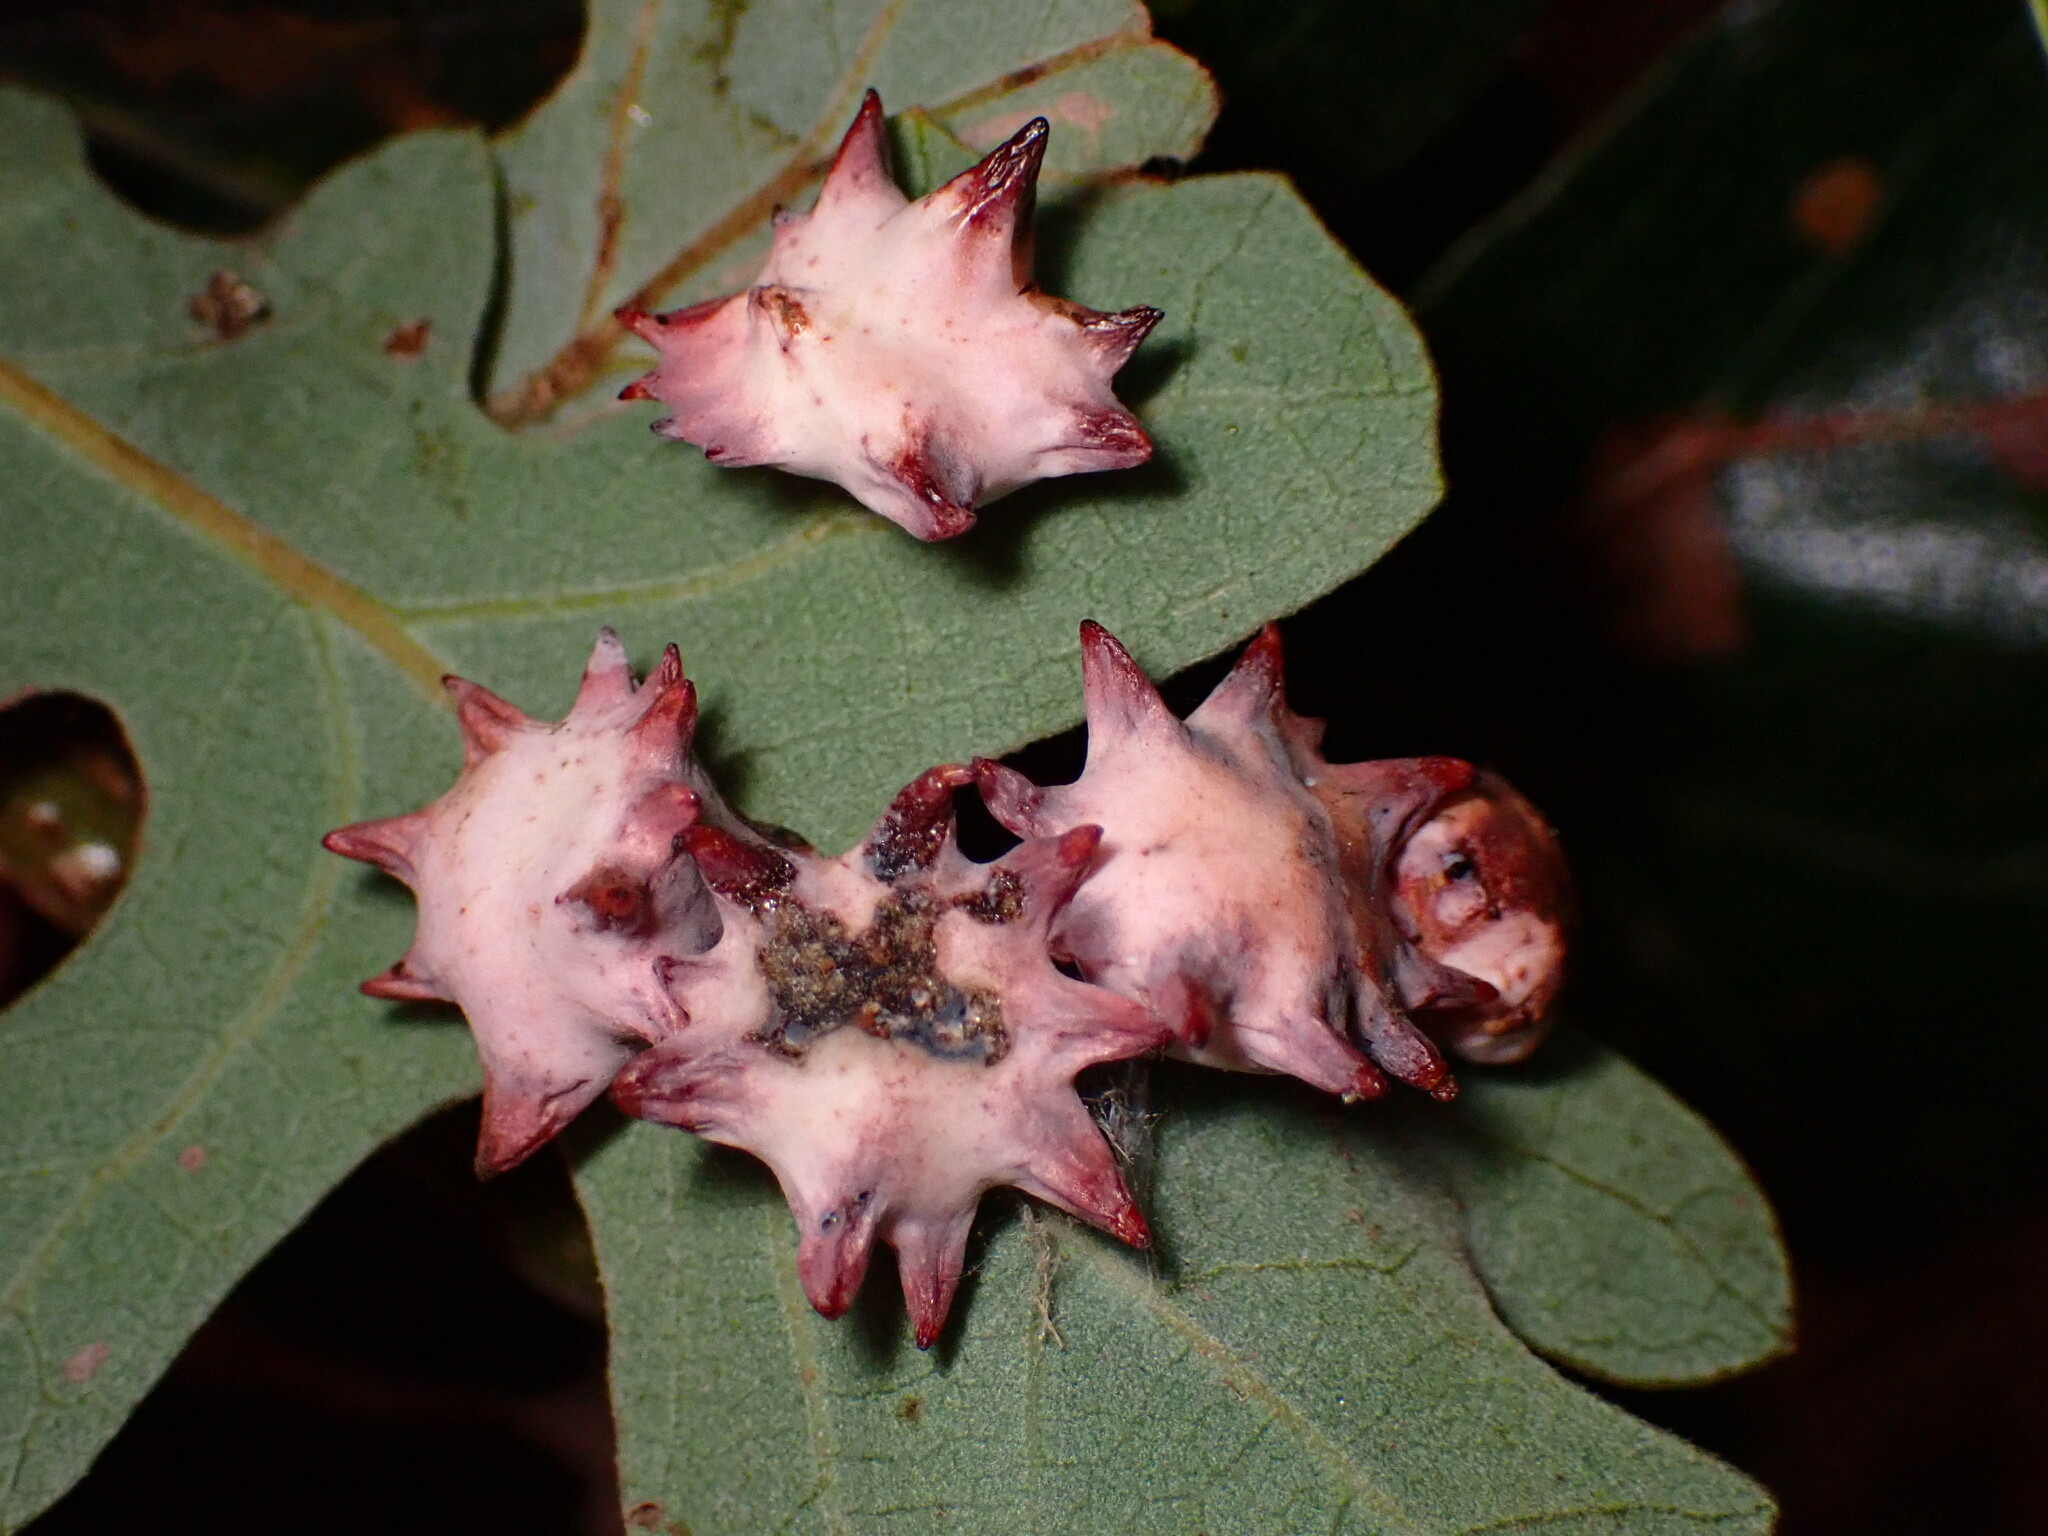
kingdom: Animalia
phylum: Arthropoda
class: Insecta
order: Hymenoptera
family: Cynipidae
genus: Cynips
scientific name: Cynips douglasi
